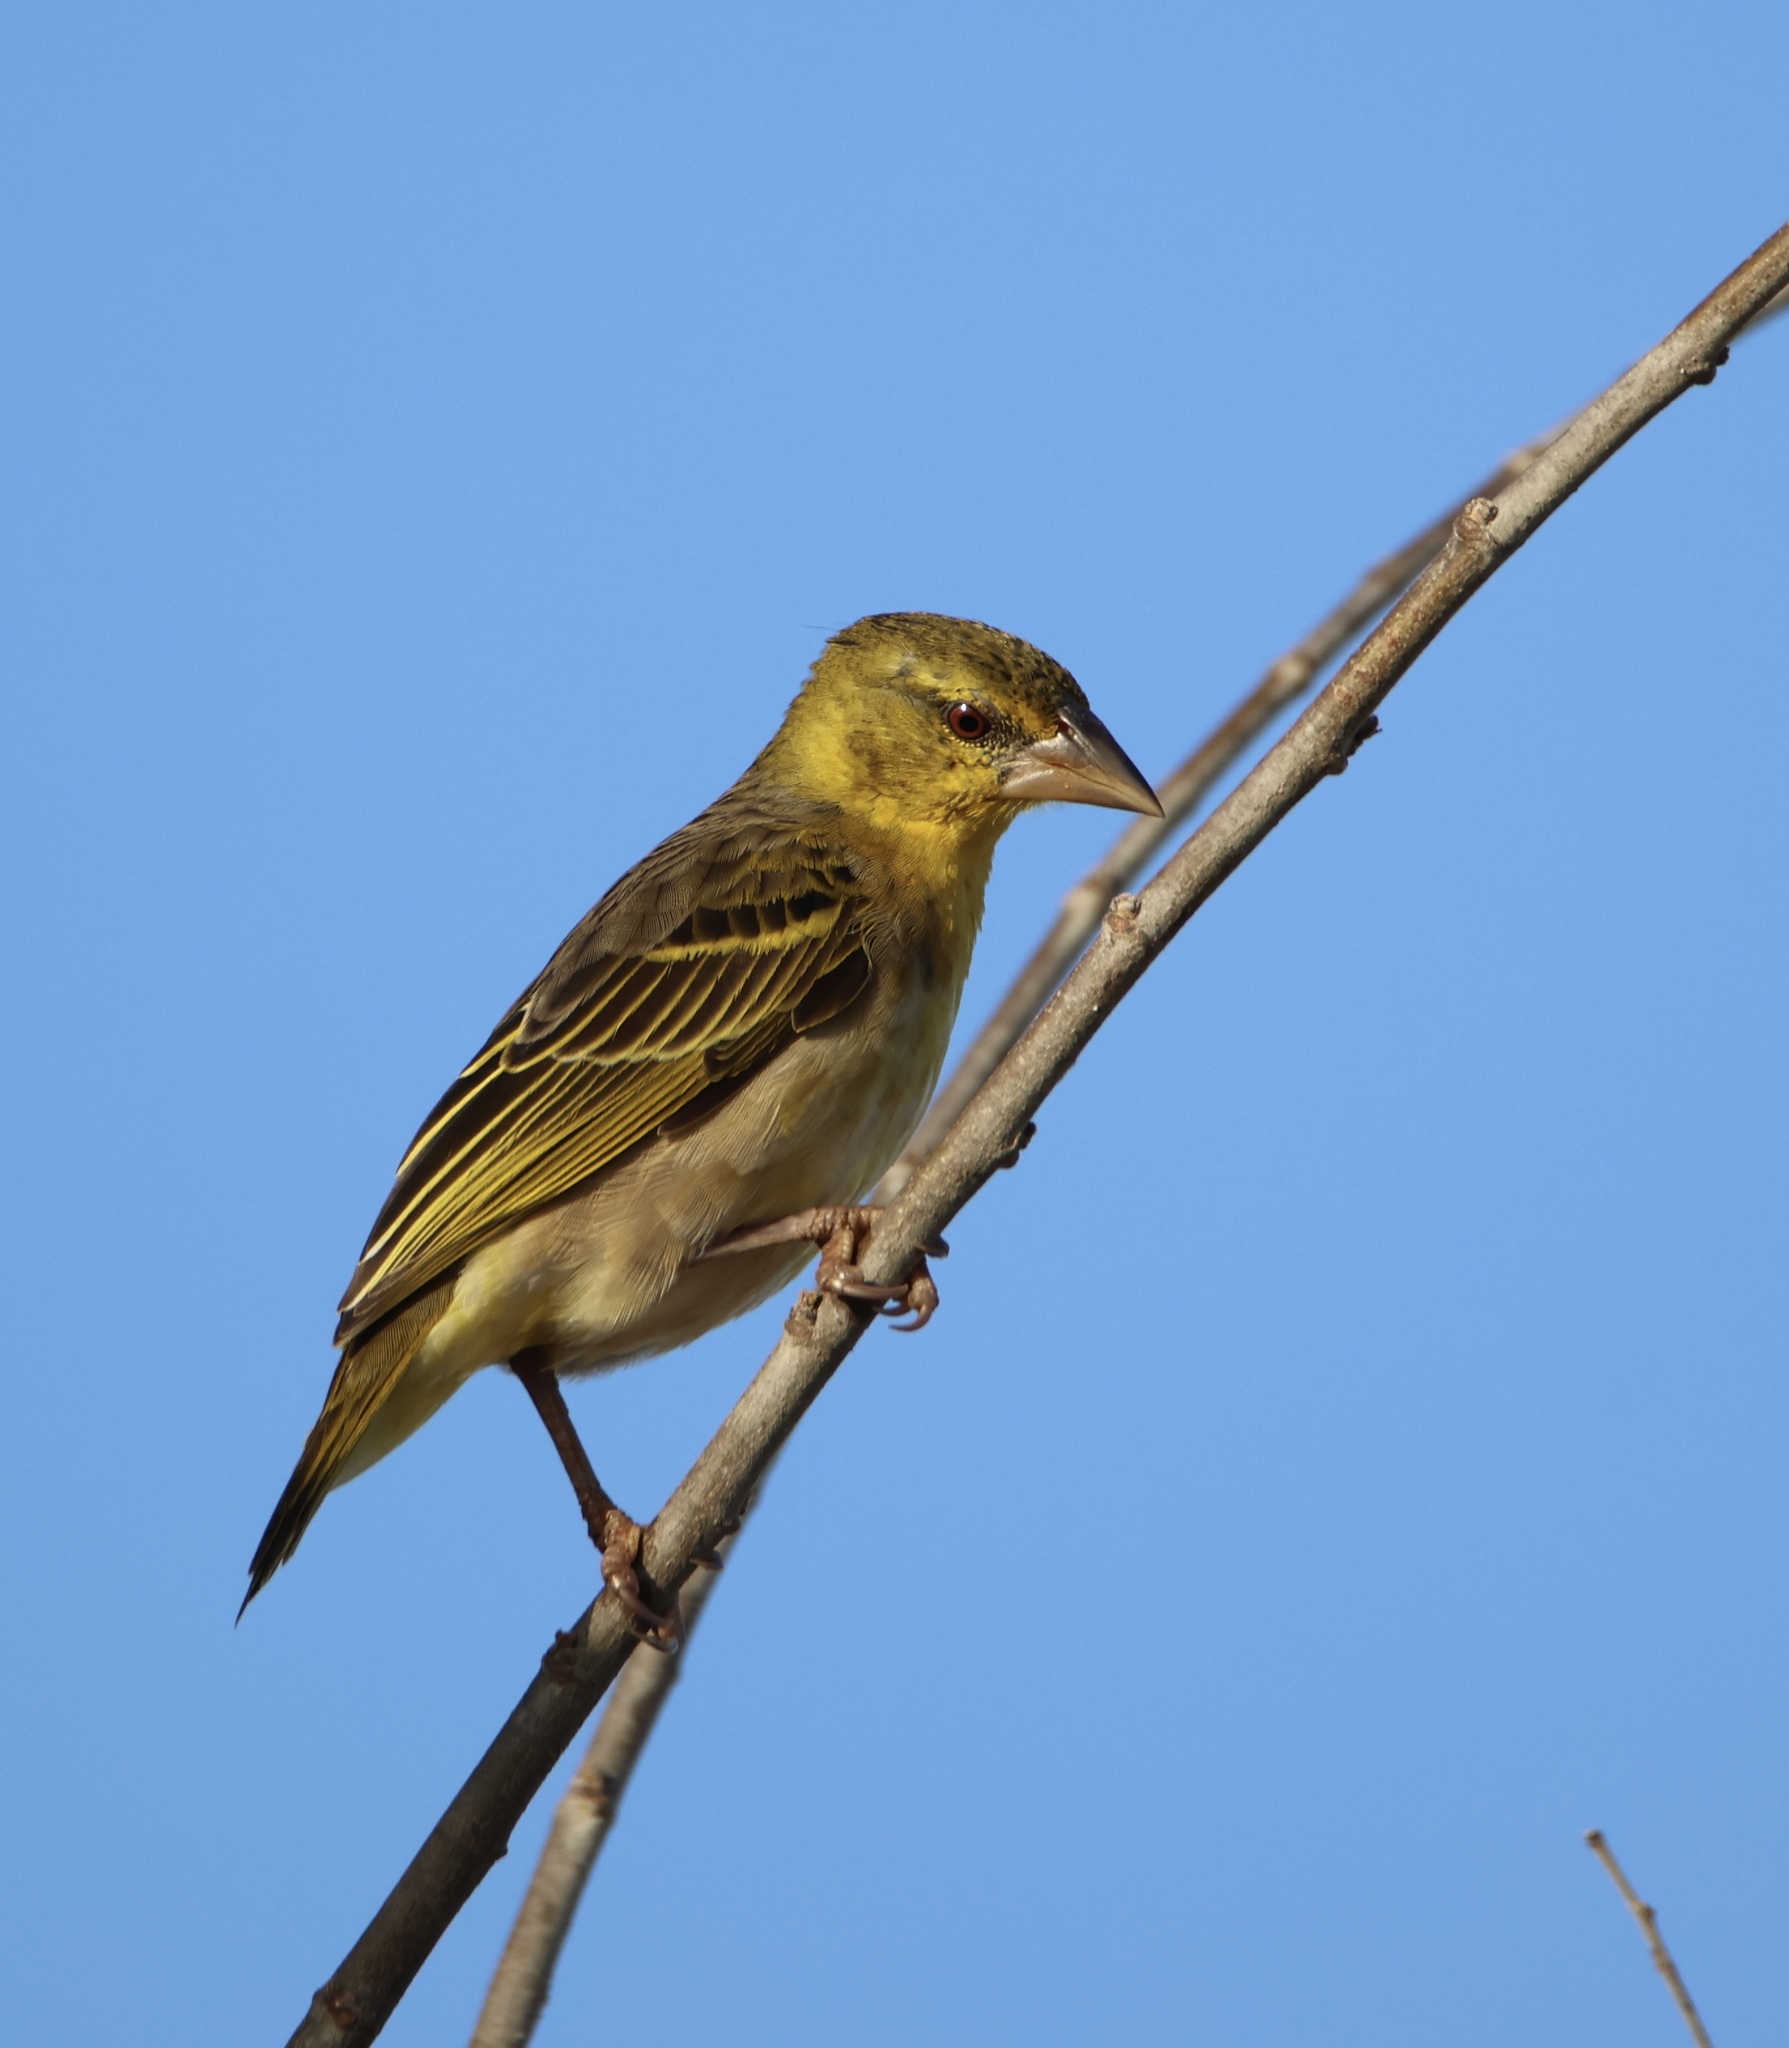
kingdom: Animalia
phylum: Chordata
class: Aves
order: Passeriformes
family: Ploceidae
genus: Ploceus
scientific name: Ploceus cucullatus
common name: Village weaver
